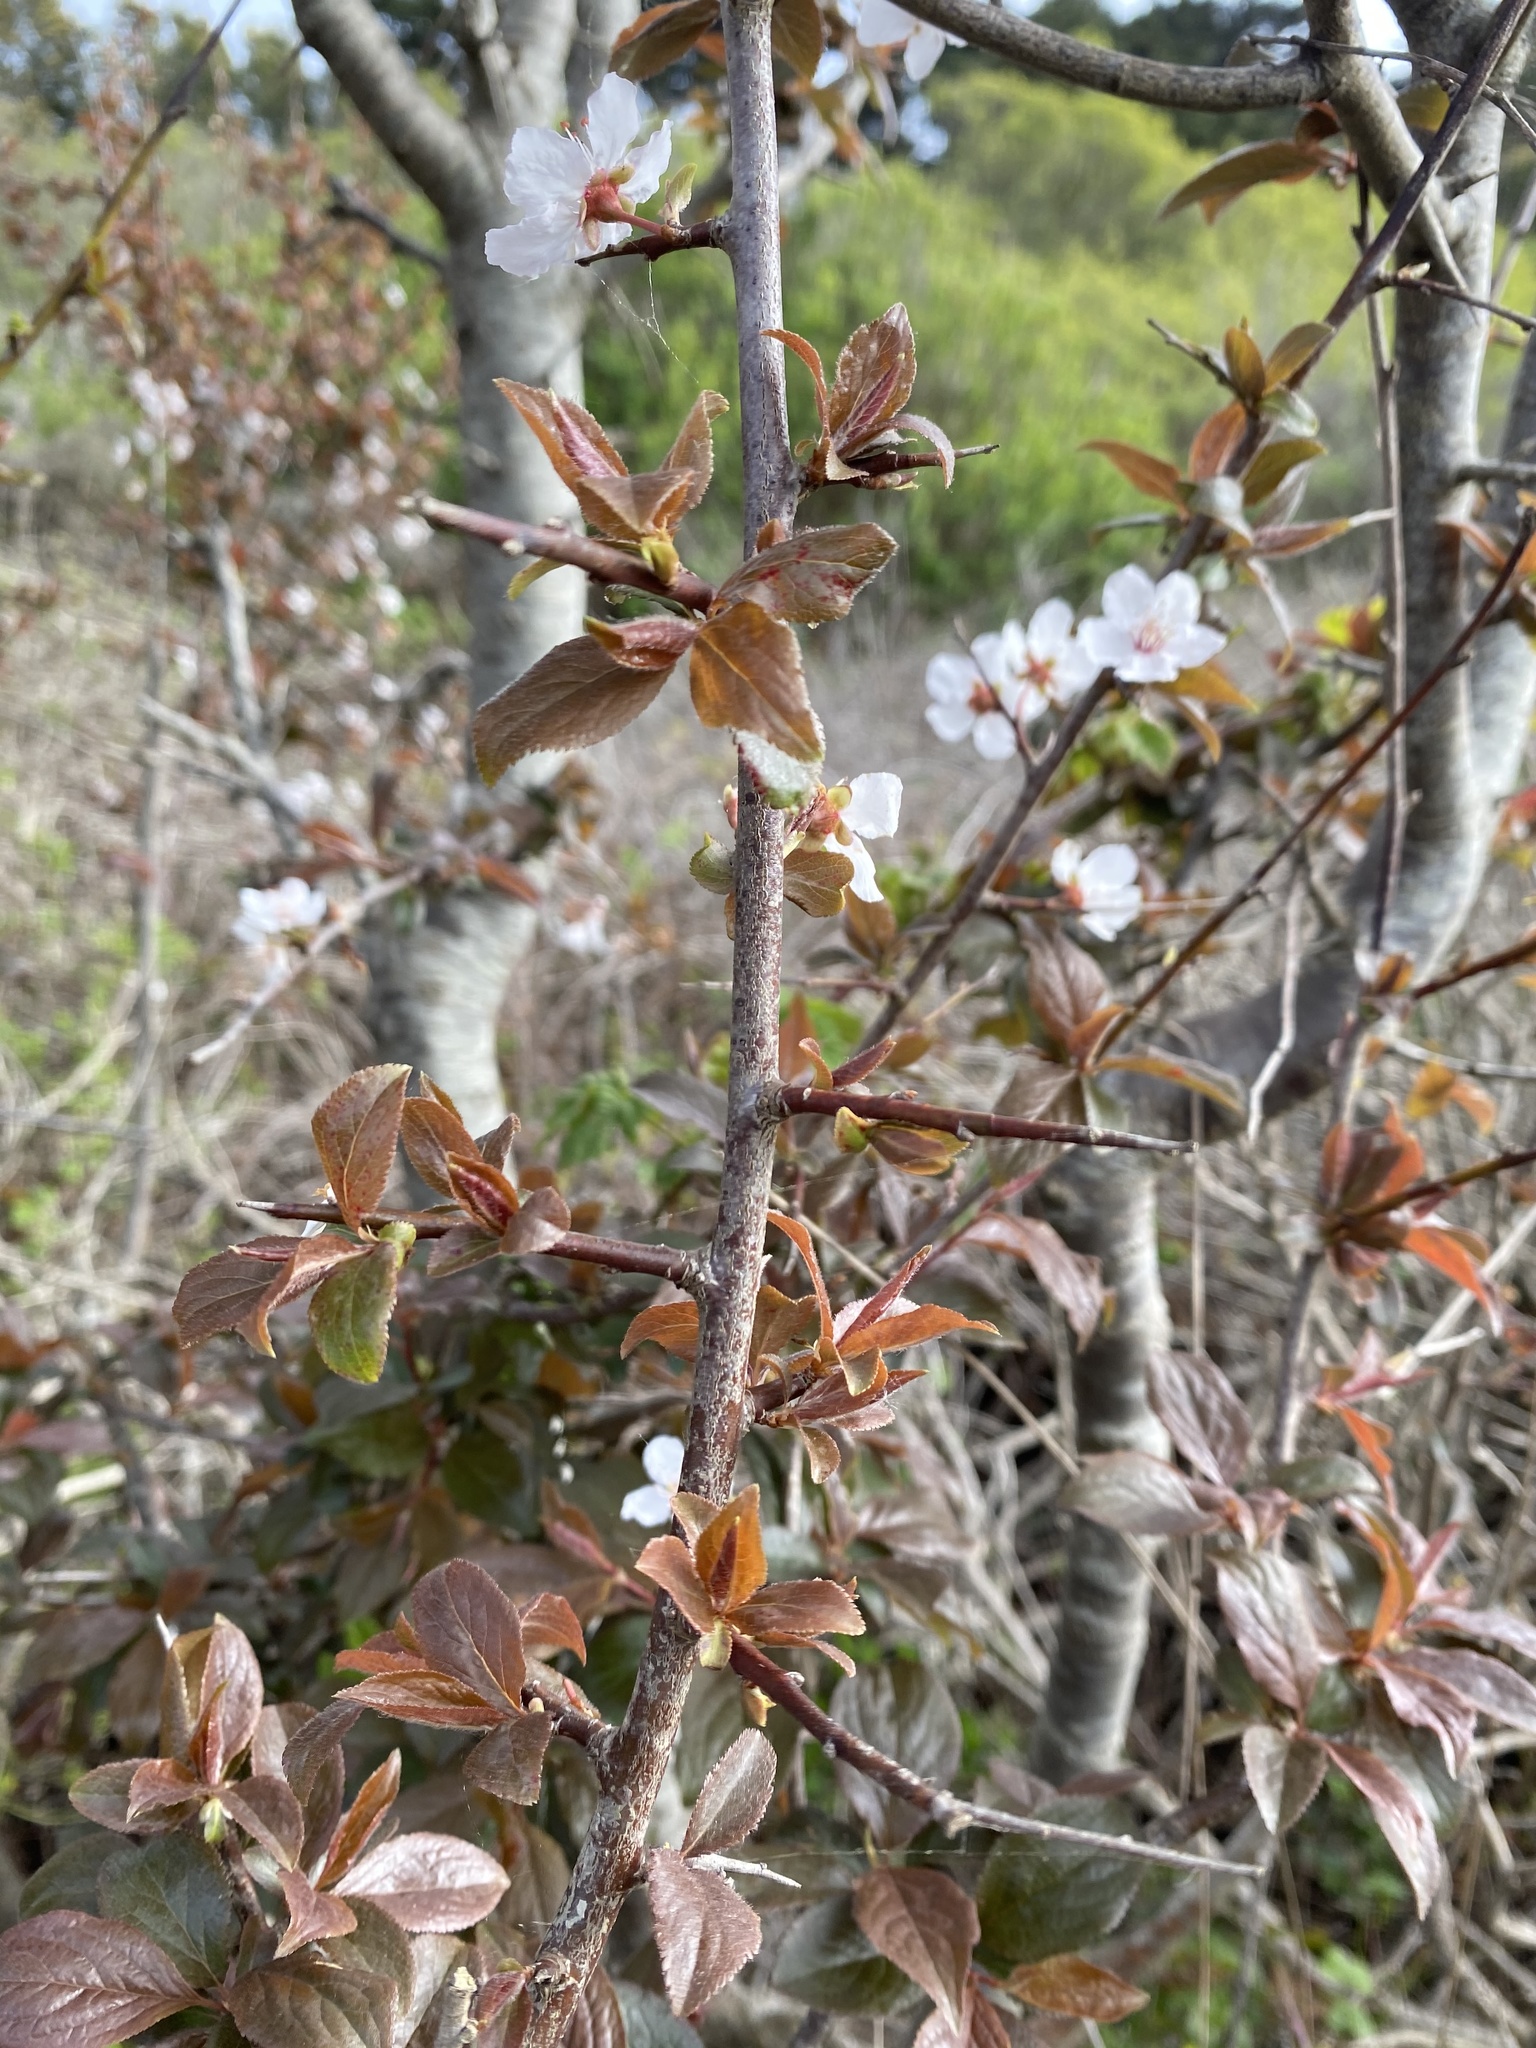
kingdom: Plantae
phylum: Tracheophyta
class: Magnoliopsida
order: Rosales
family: Rosaceae
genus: Prunus
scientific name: Prunus cerasifera
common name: Cherry plum
